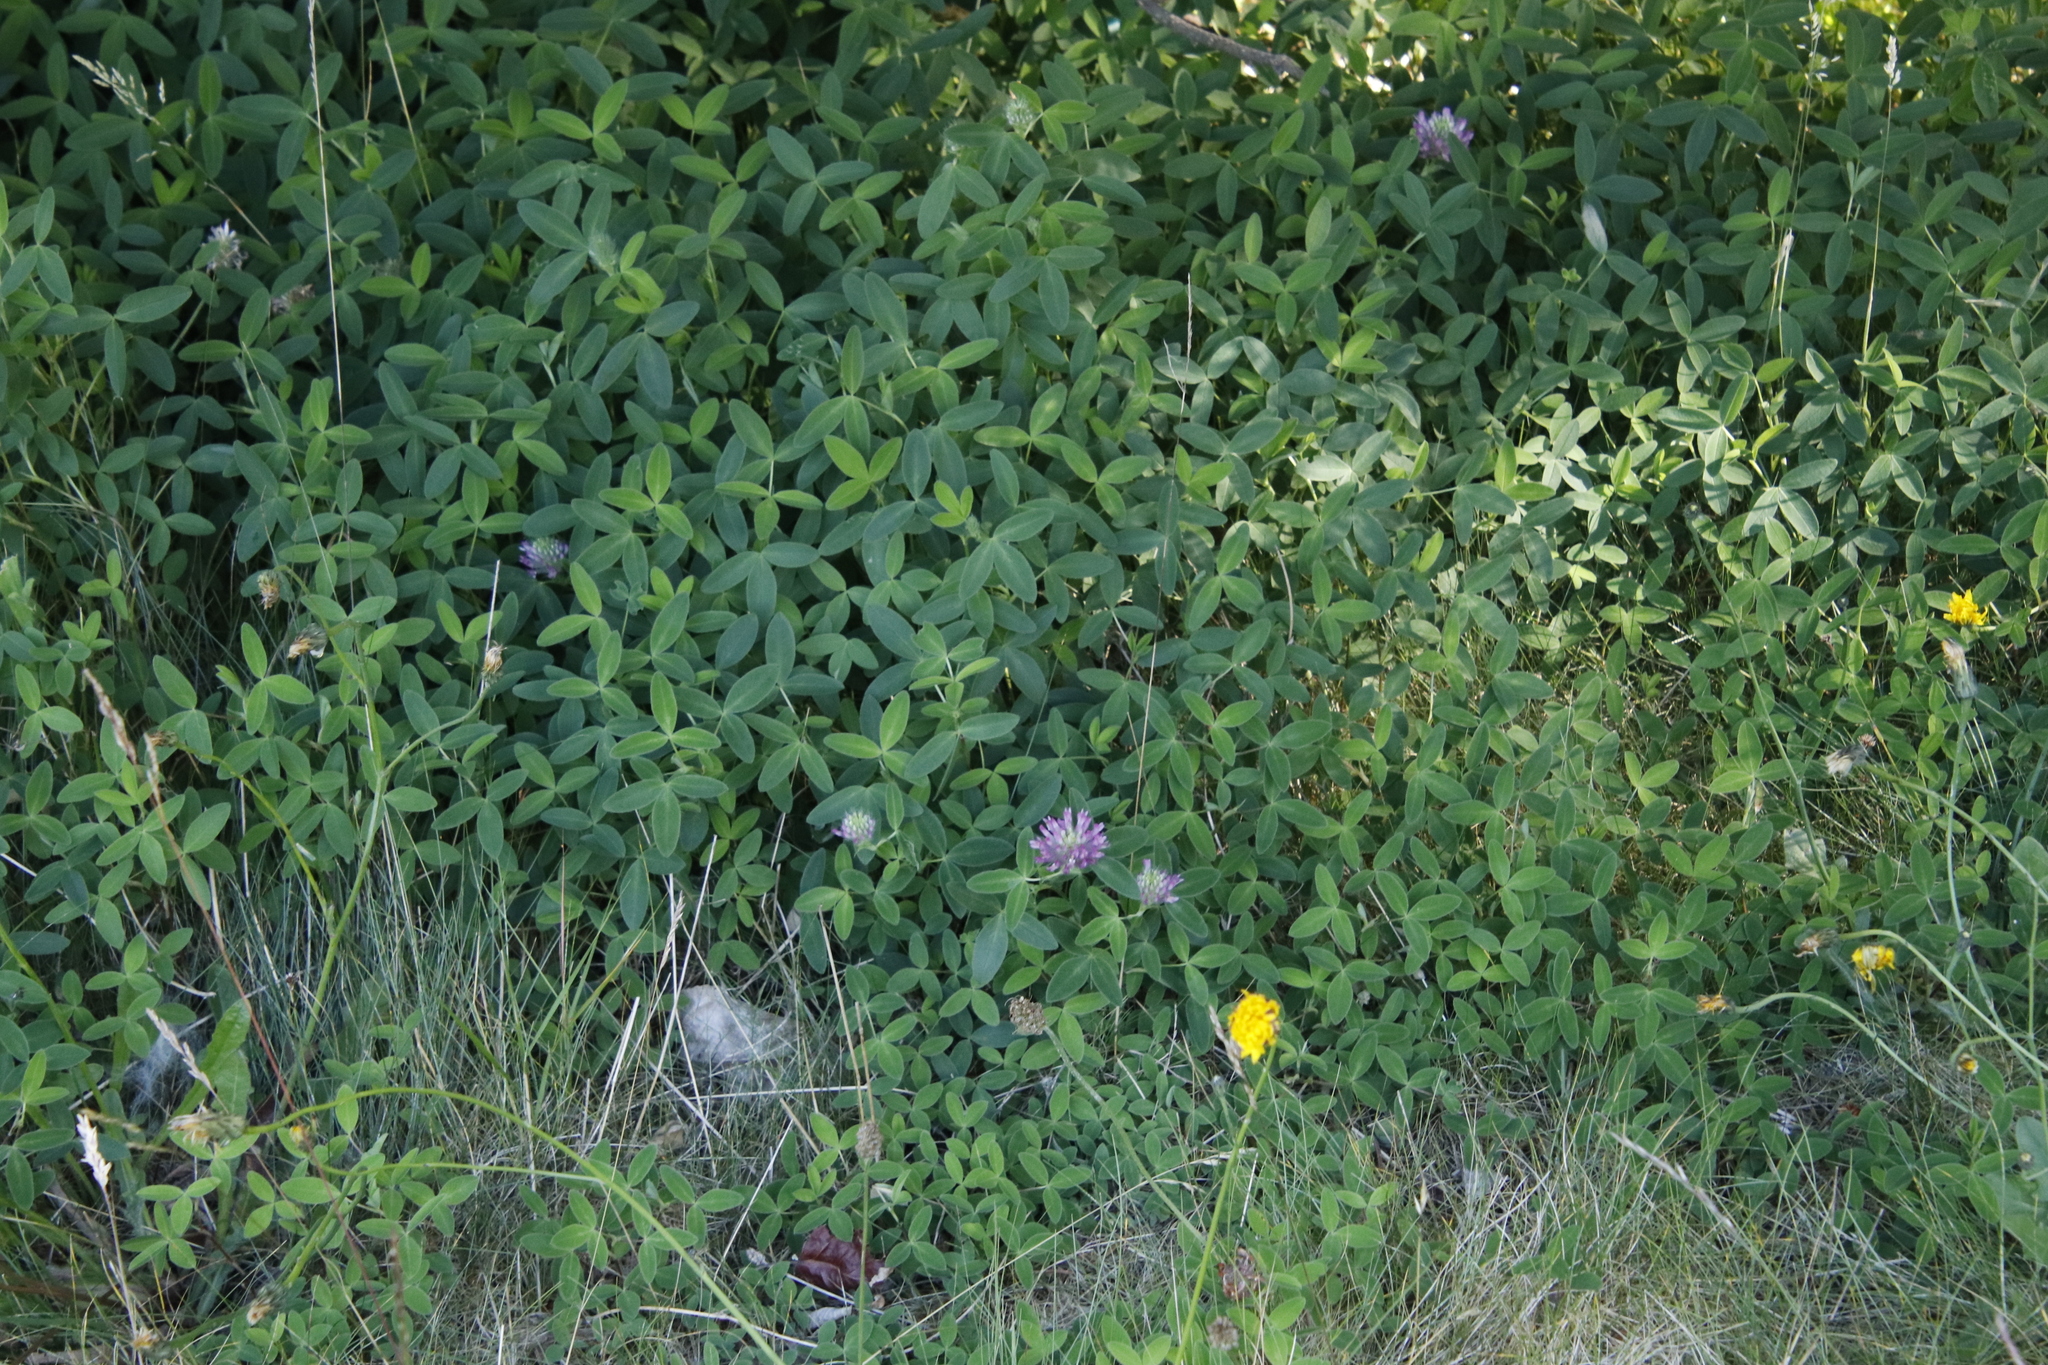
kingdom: Plantae
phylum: Tracheophyta
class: Magnoliopsida
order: Fabales
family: Fabaceae
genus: Trifolium
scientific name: Trifolium medium
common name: Zigzag clover
